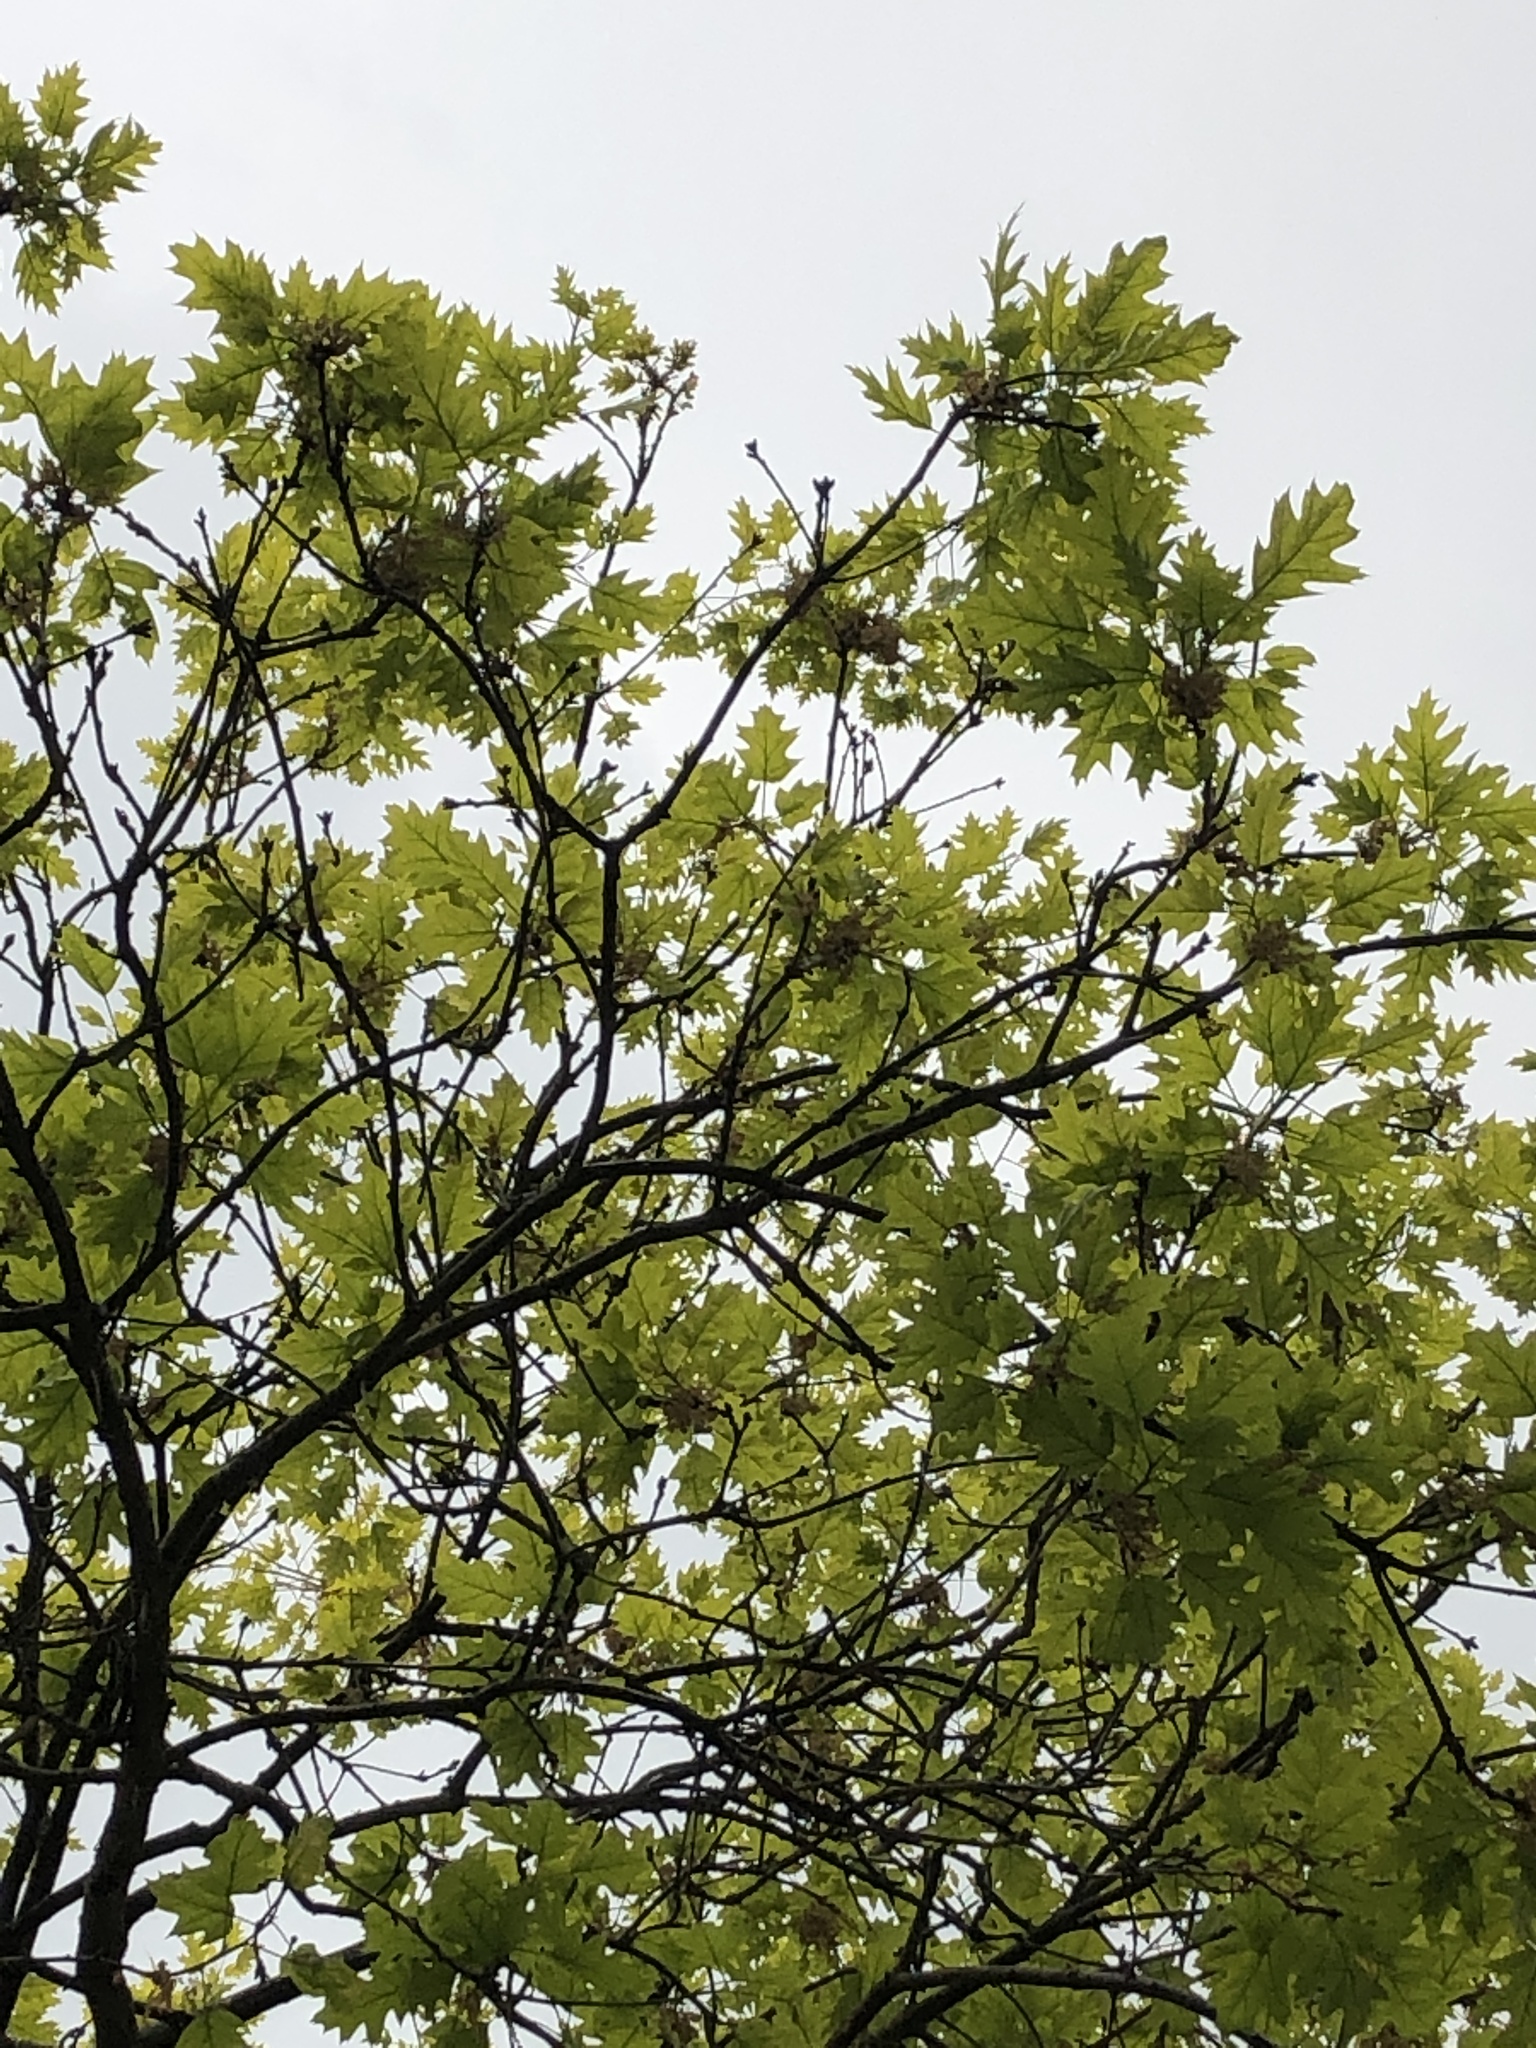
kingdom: Plantae
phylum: Tracheophyta
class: Magnoliopsida
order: Fagales
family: Fagaceae
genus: Quercus
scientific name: Quercus coccinea
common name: Scarlet oak
